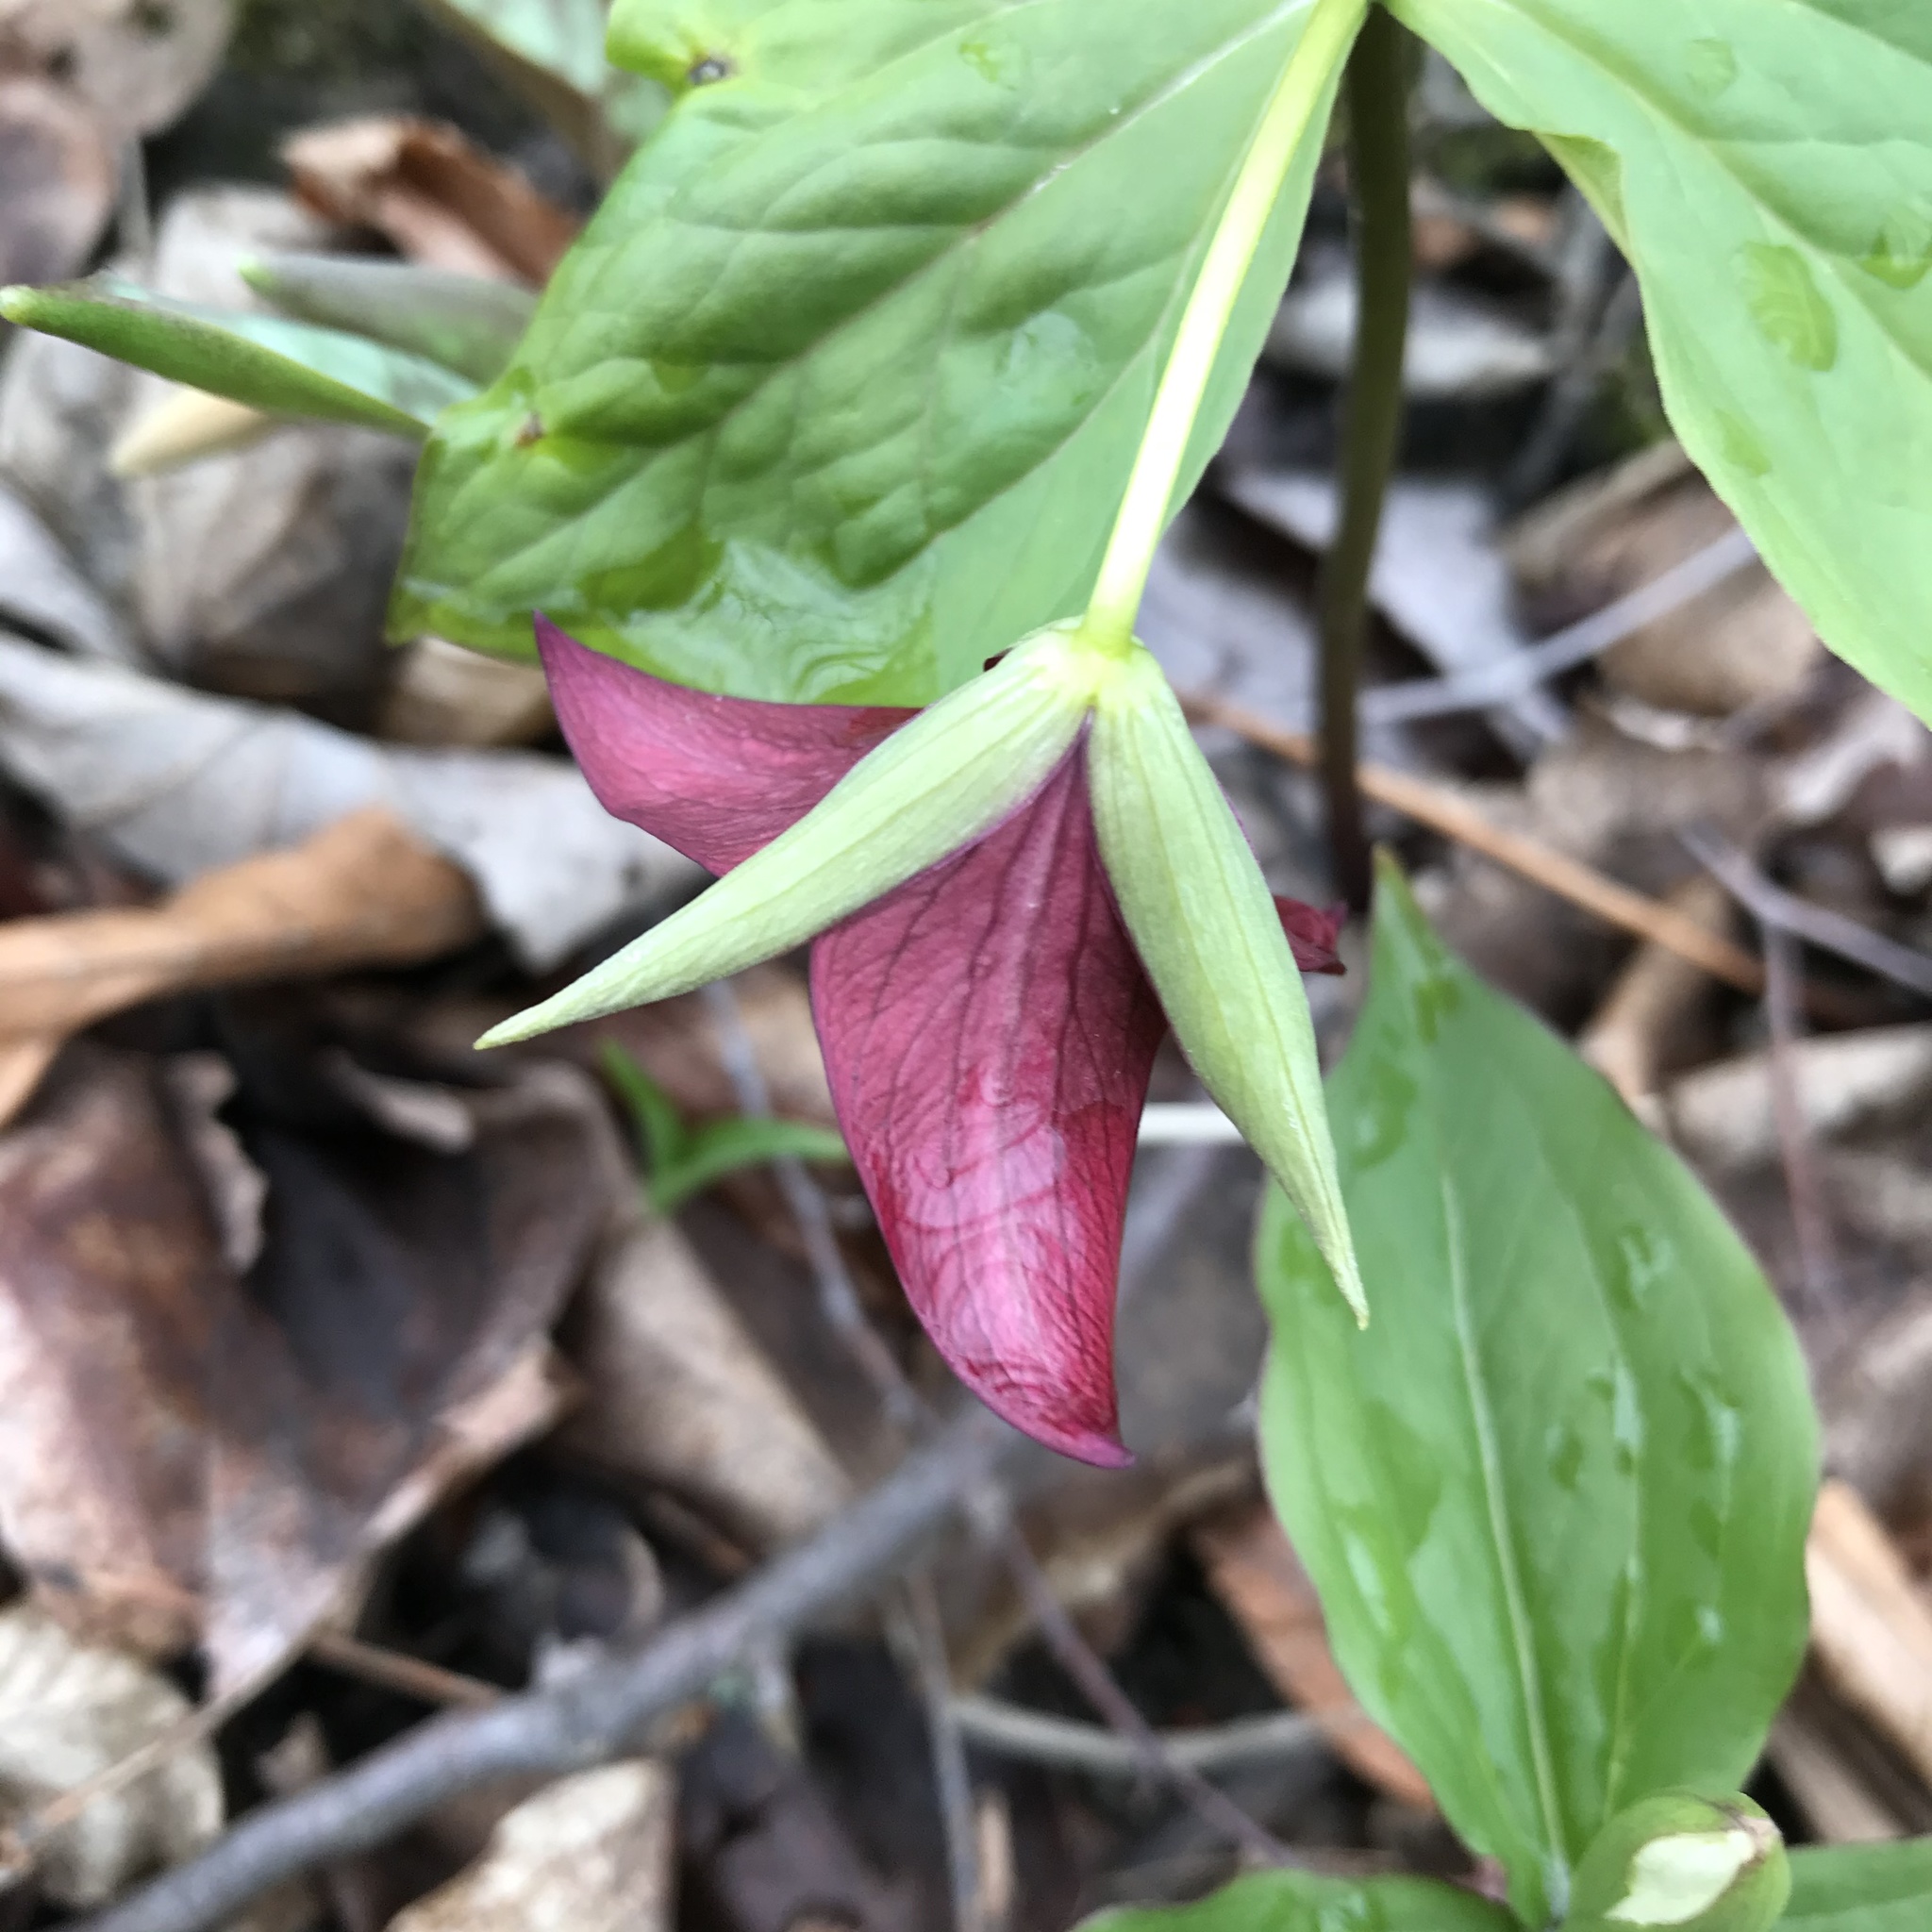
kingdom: Plantae
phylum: Tracheophyta
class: Liliopsida
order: Liliales
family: Melanthiaceae
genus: Trillium
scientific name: Trillium erectum
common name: Purple trillium
